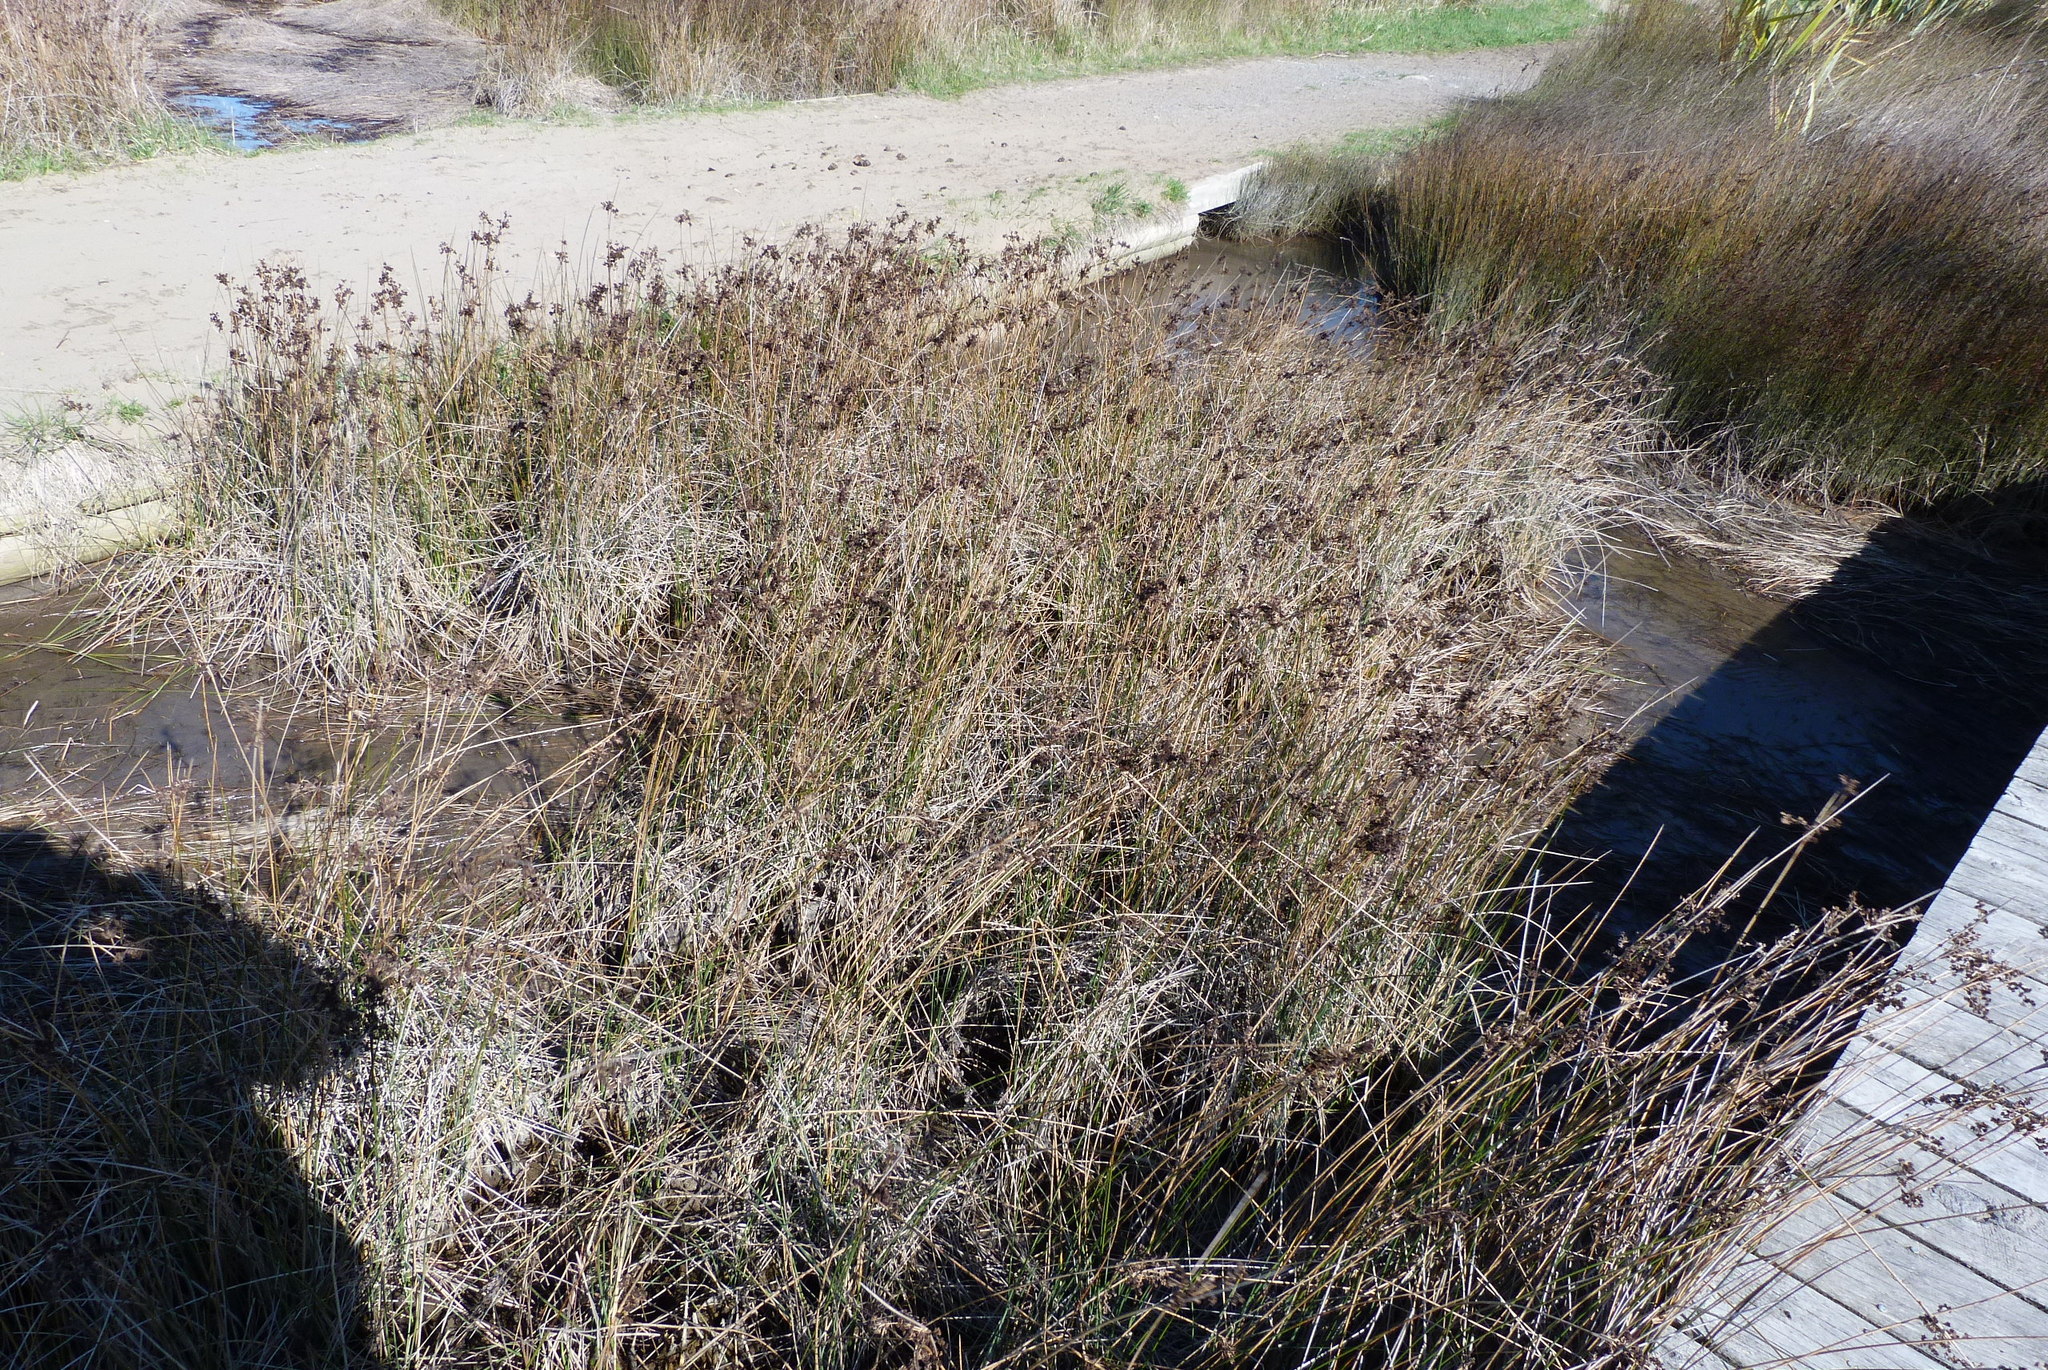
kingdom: Plantae
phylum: Tracheophyta
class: Liliopsida
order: Poales
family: Juncaceae
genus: Juncus
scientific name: Juncus kraussii
